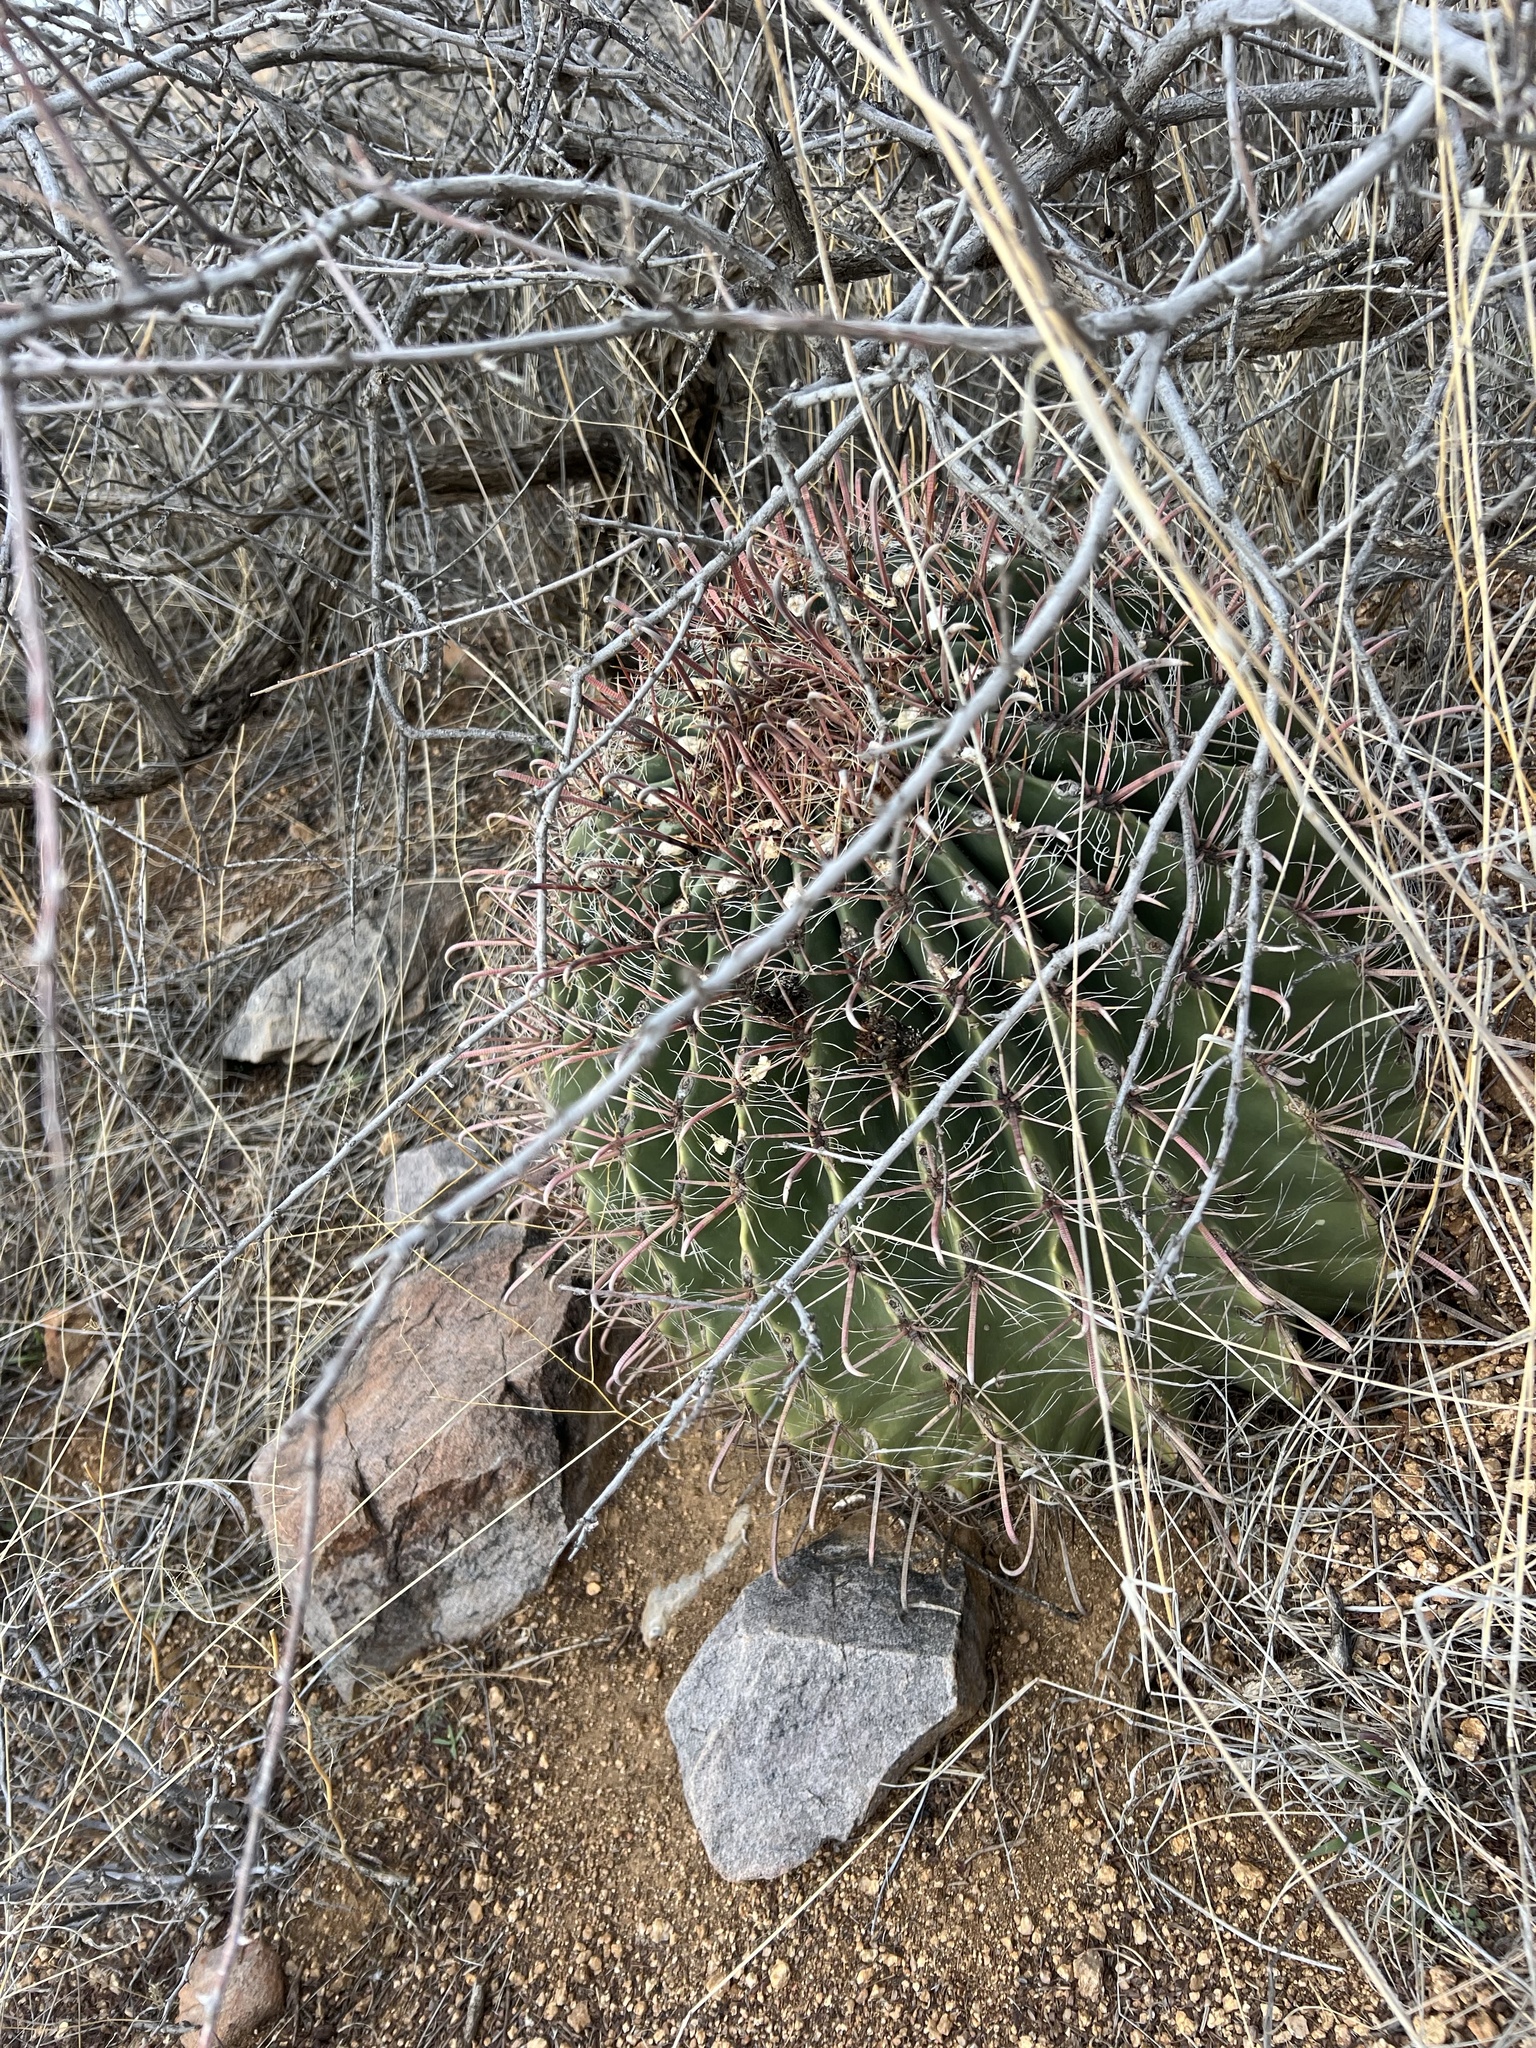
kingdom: Plantae
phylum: Tracheophyta
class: Magnoliopsida
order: Caryophyllales
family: Cactaceae
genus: Ferocactus
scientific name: Ferocactus wislizeni
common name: Candy barrel cactus
